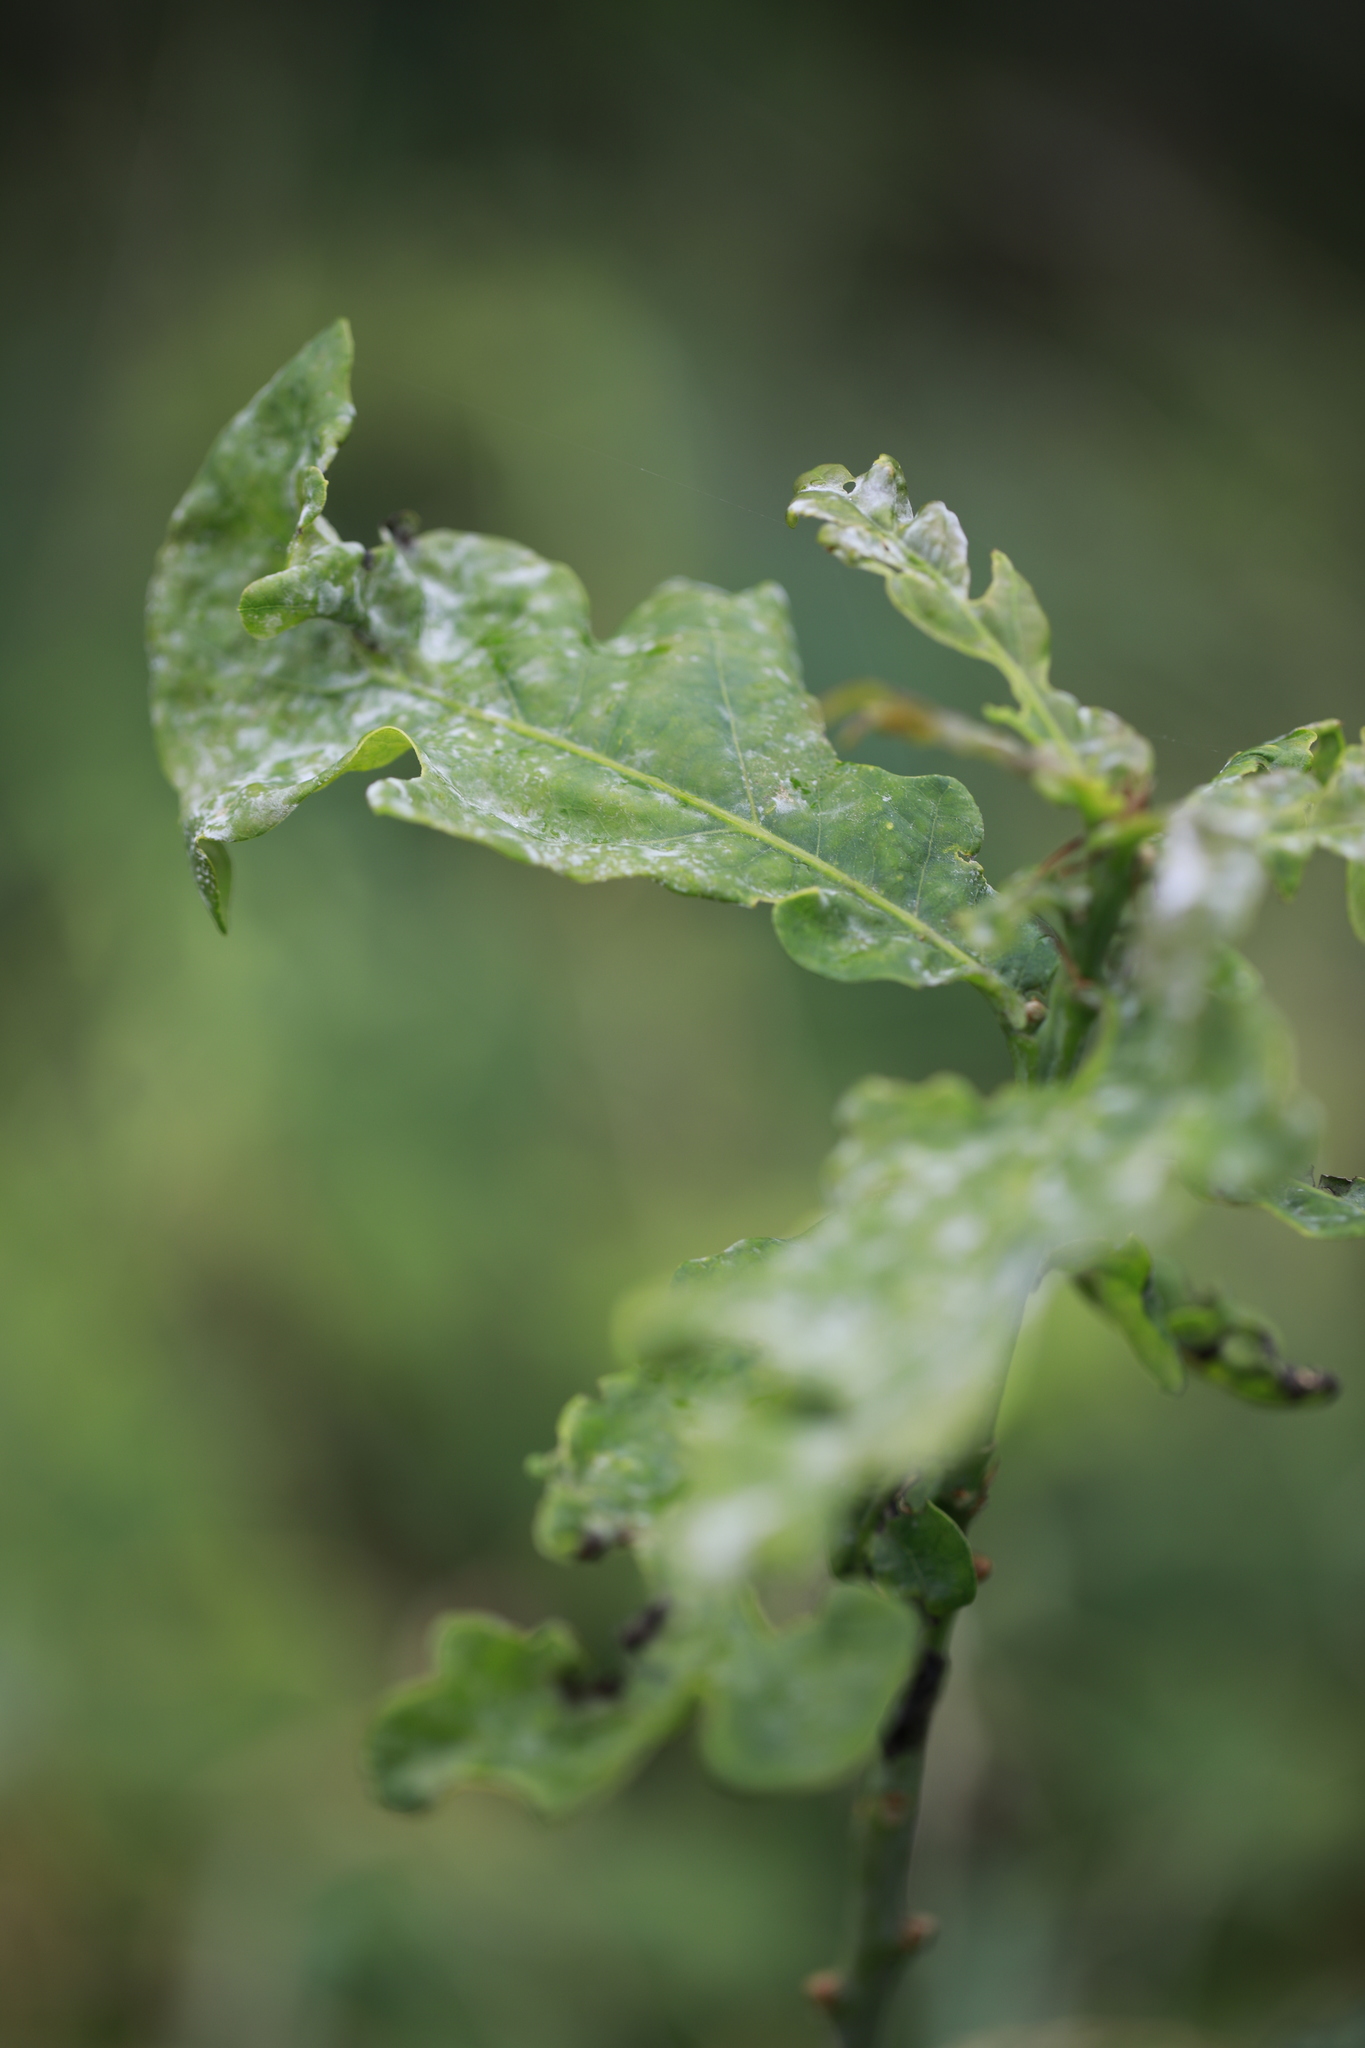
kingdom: Plantae
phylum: Tracheophyta
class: Magnoliopsida
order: Fagales
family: Fagaceae
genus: Quercus
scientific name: Quercus robur
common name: Pedunculate oak
